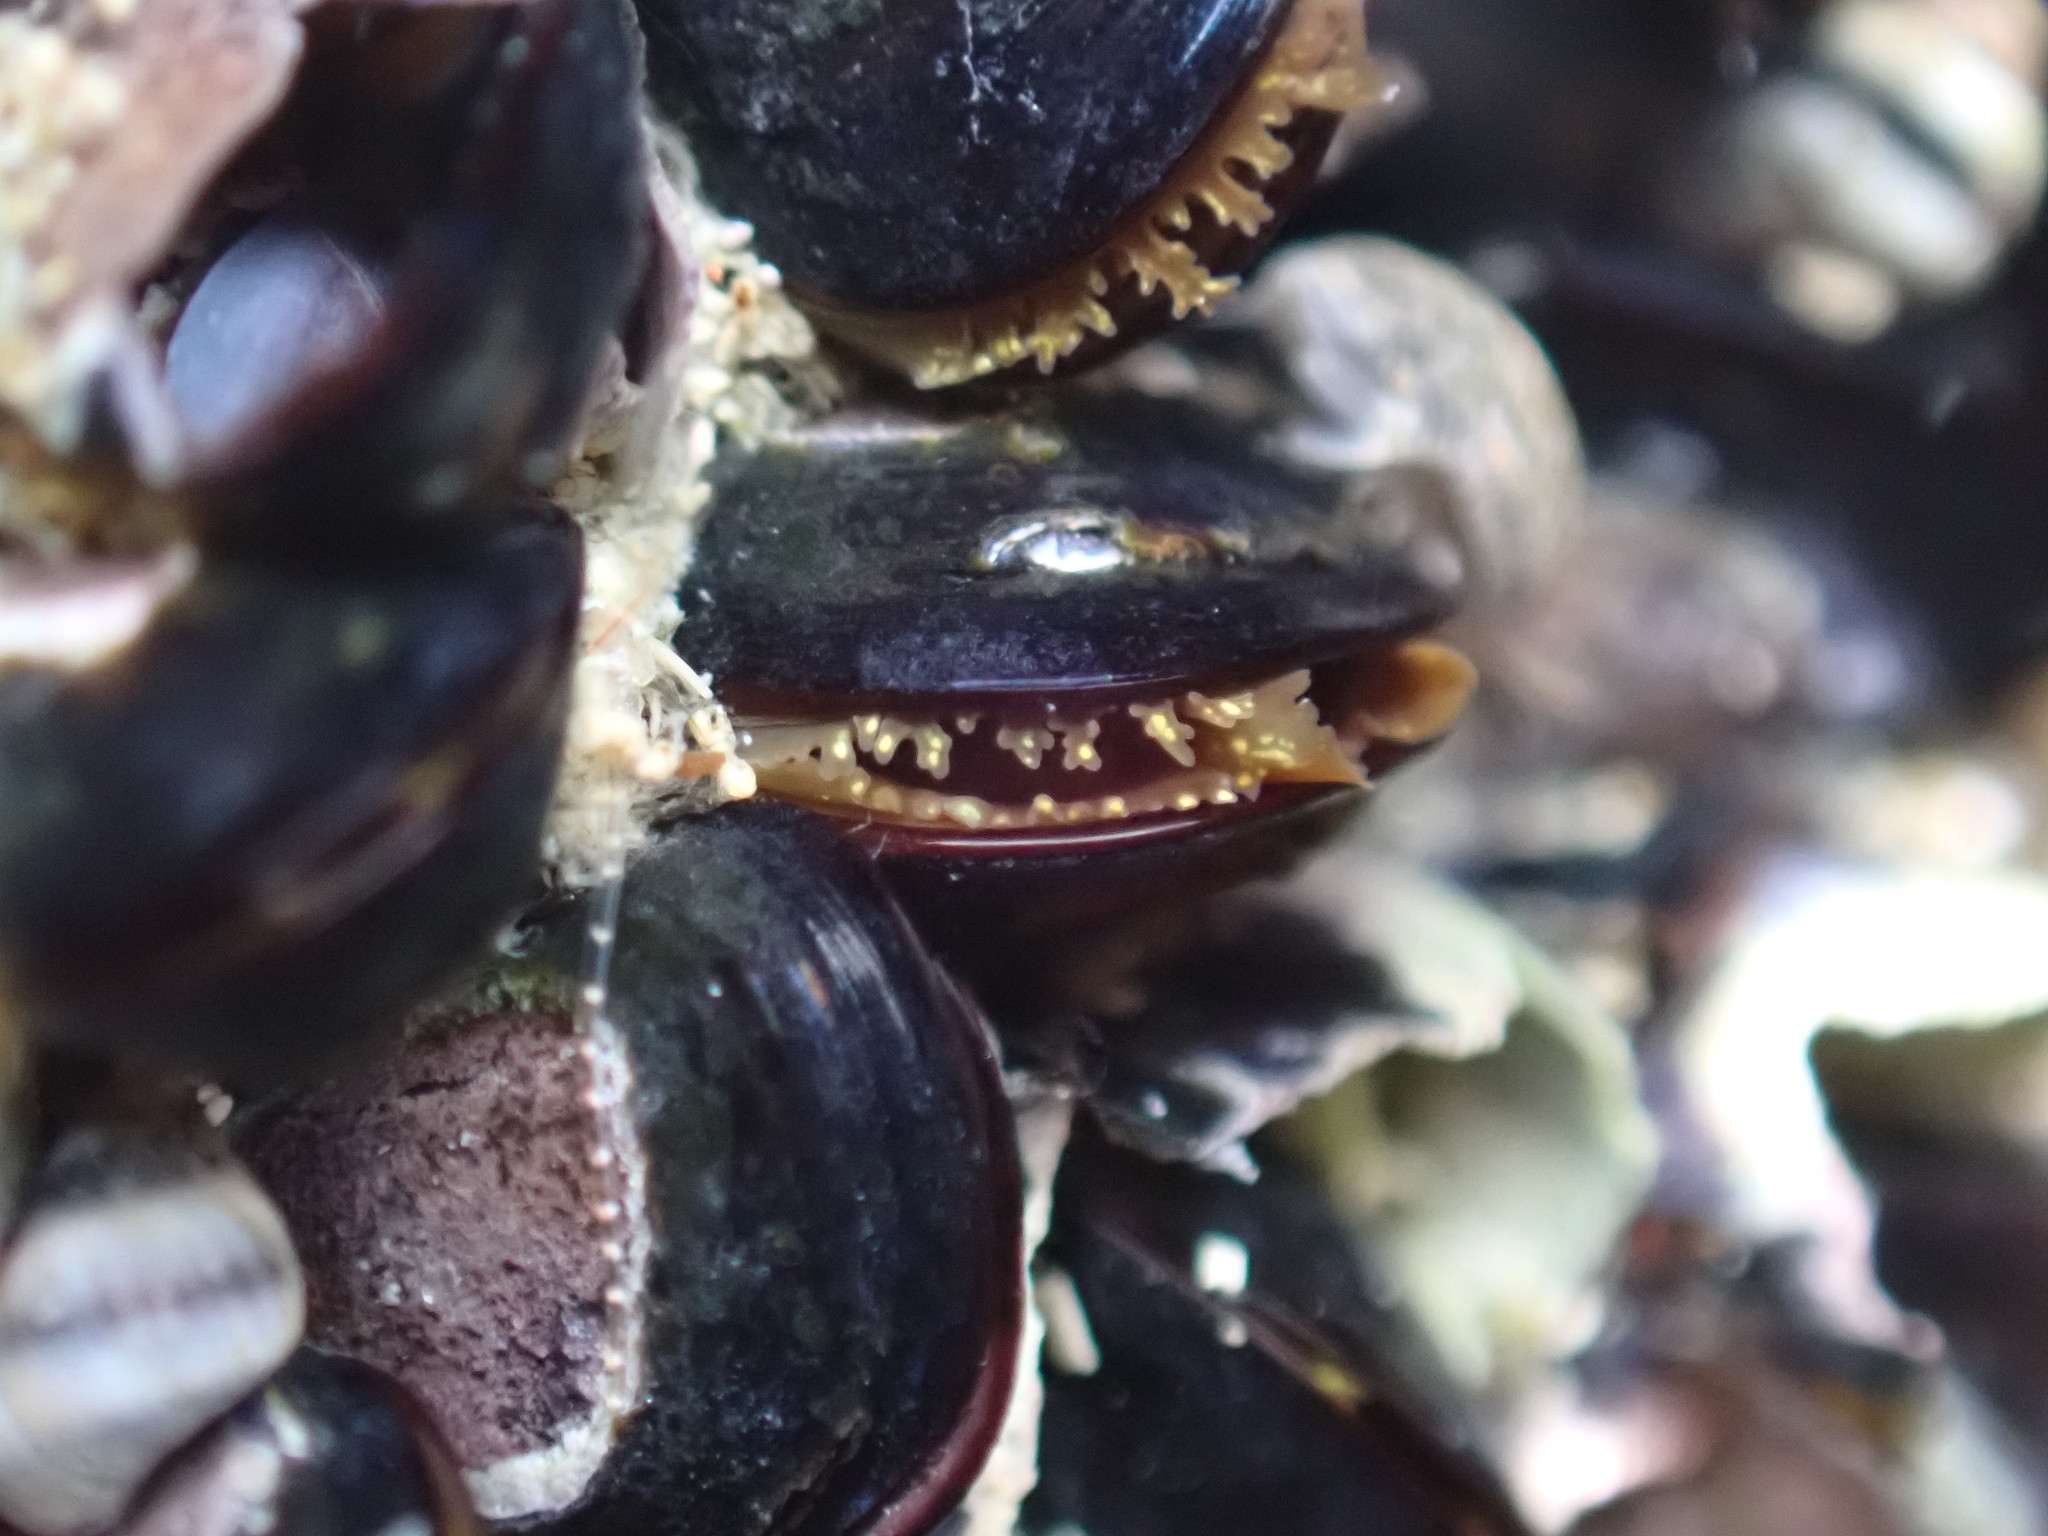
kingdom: Animalia
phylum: Mollusca
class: Bivalvia
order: Mytilida
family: Mytilidae
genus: Xenostrobus
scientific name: Xenostrobus neozelanicus
